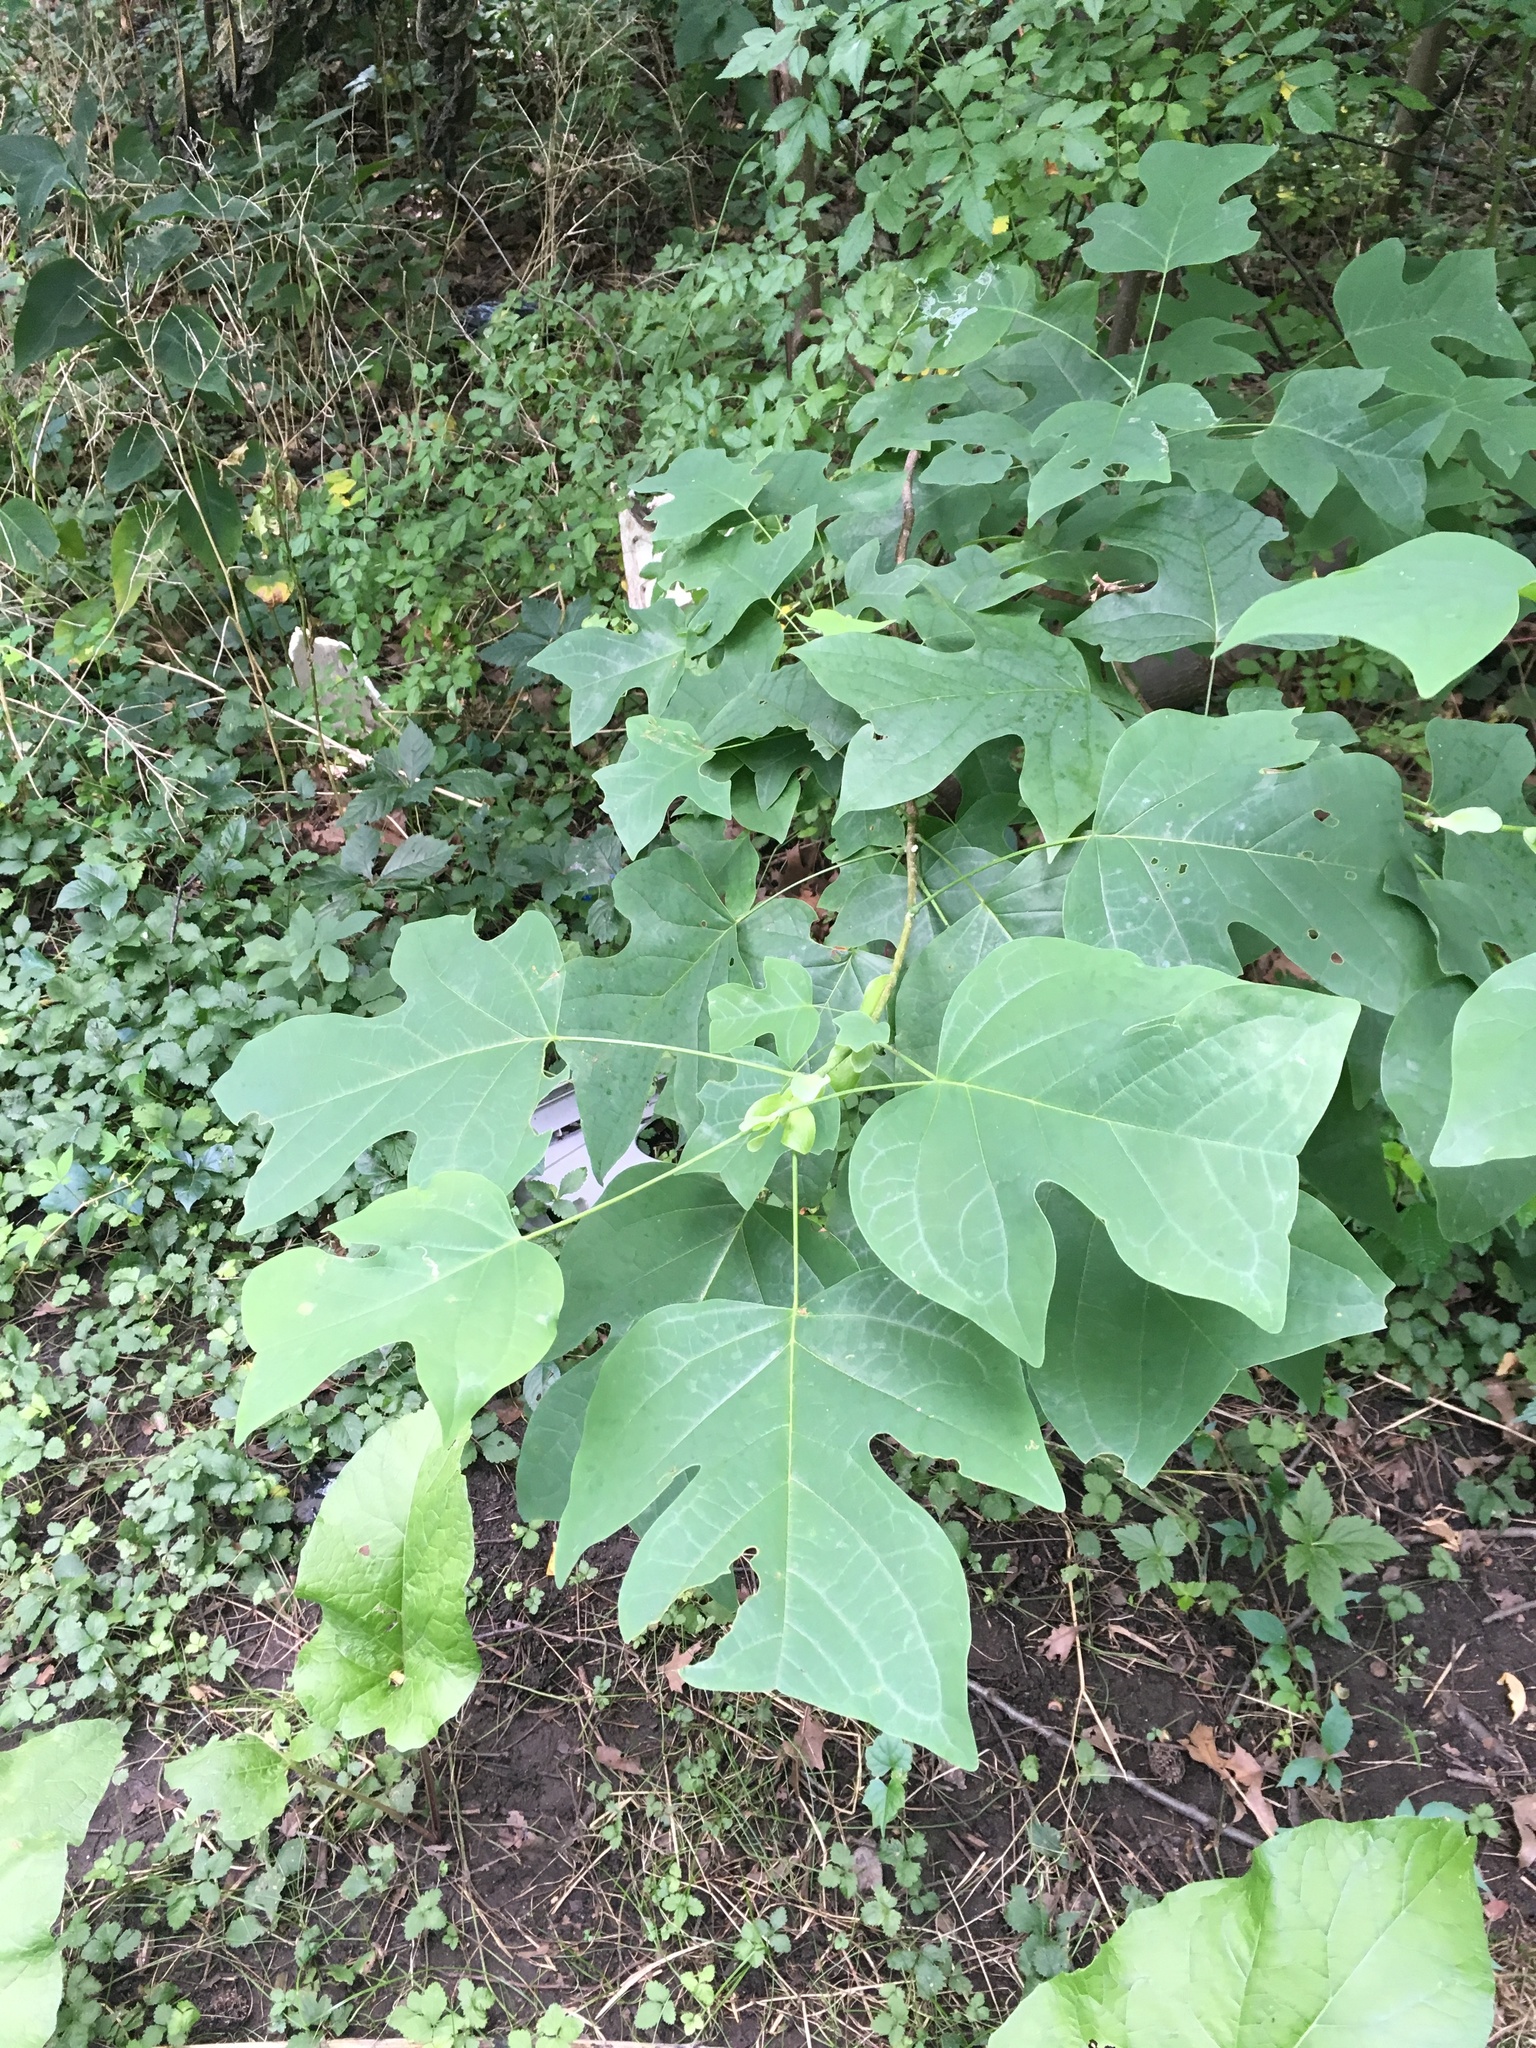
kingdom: Plantae
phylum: Tracheophyta
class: Magnoliopsida
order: Magnoliales
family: Magnoliaceae
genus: Liriodendron
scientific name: Liriodendron tulipifera
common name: Tulip tree
